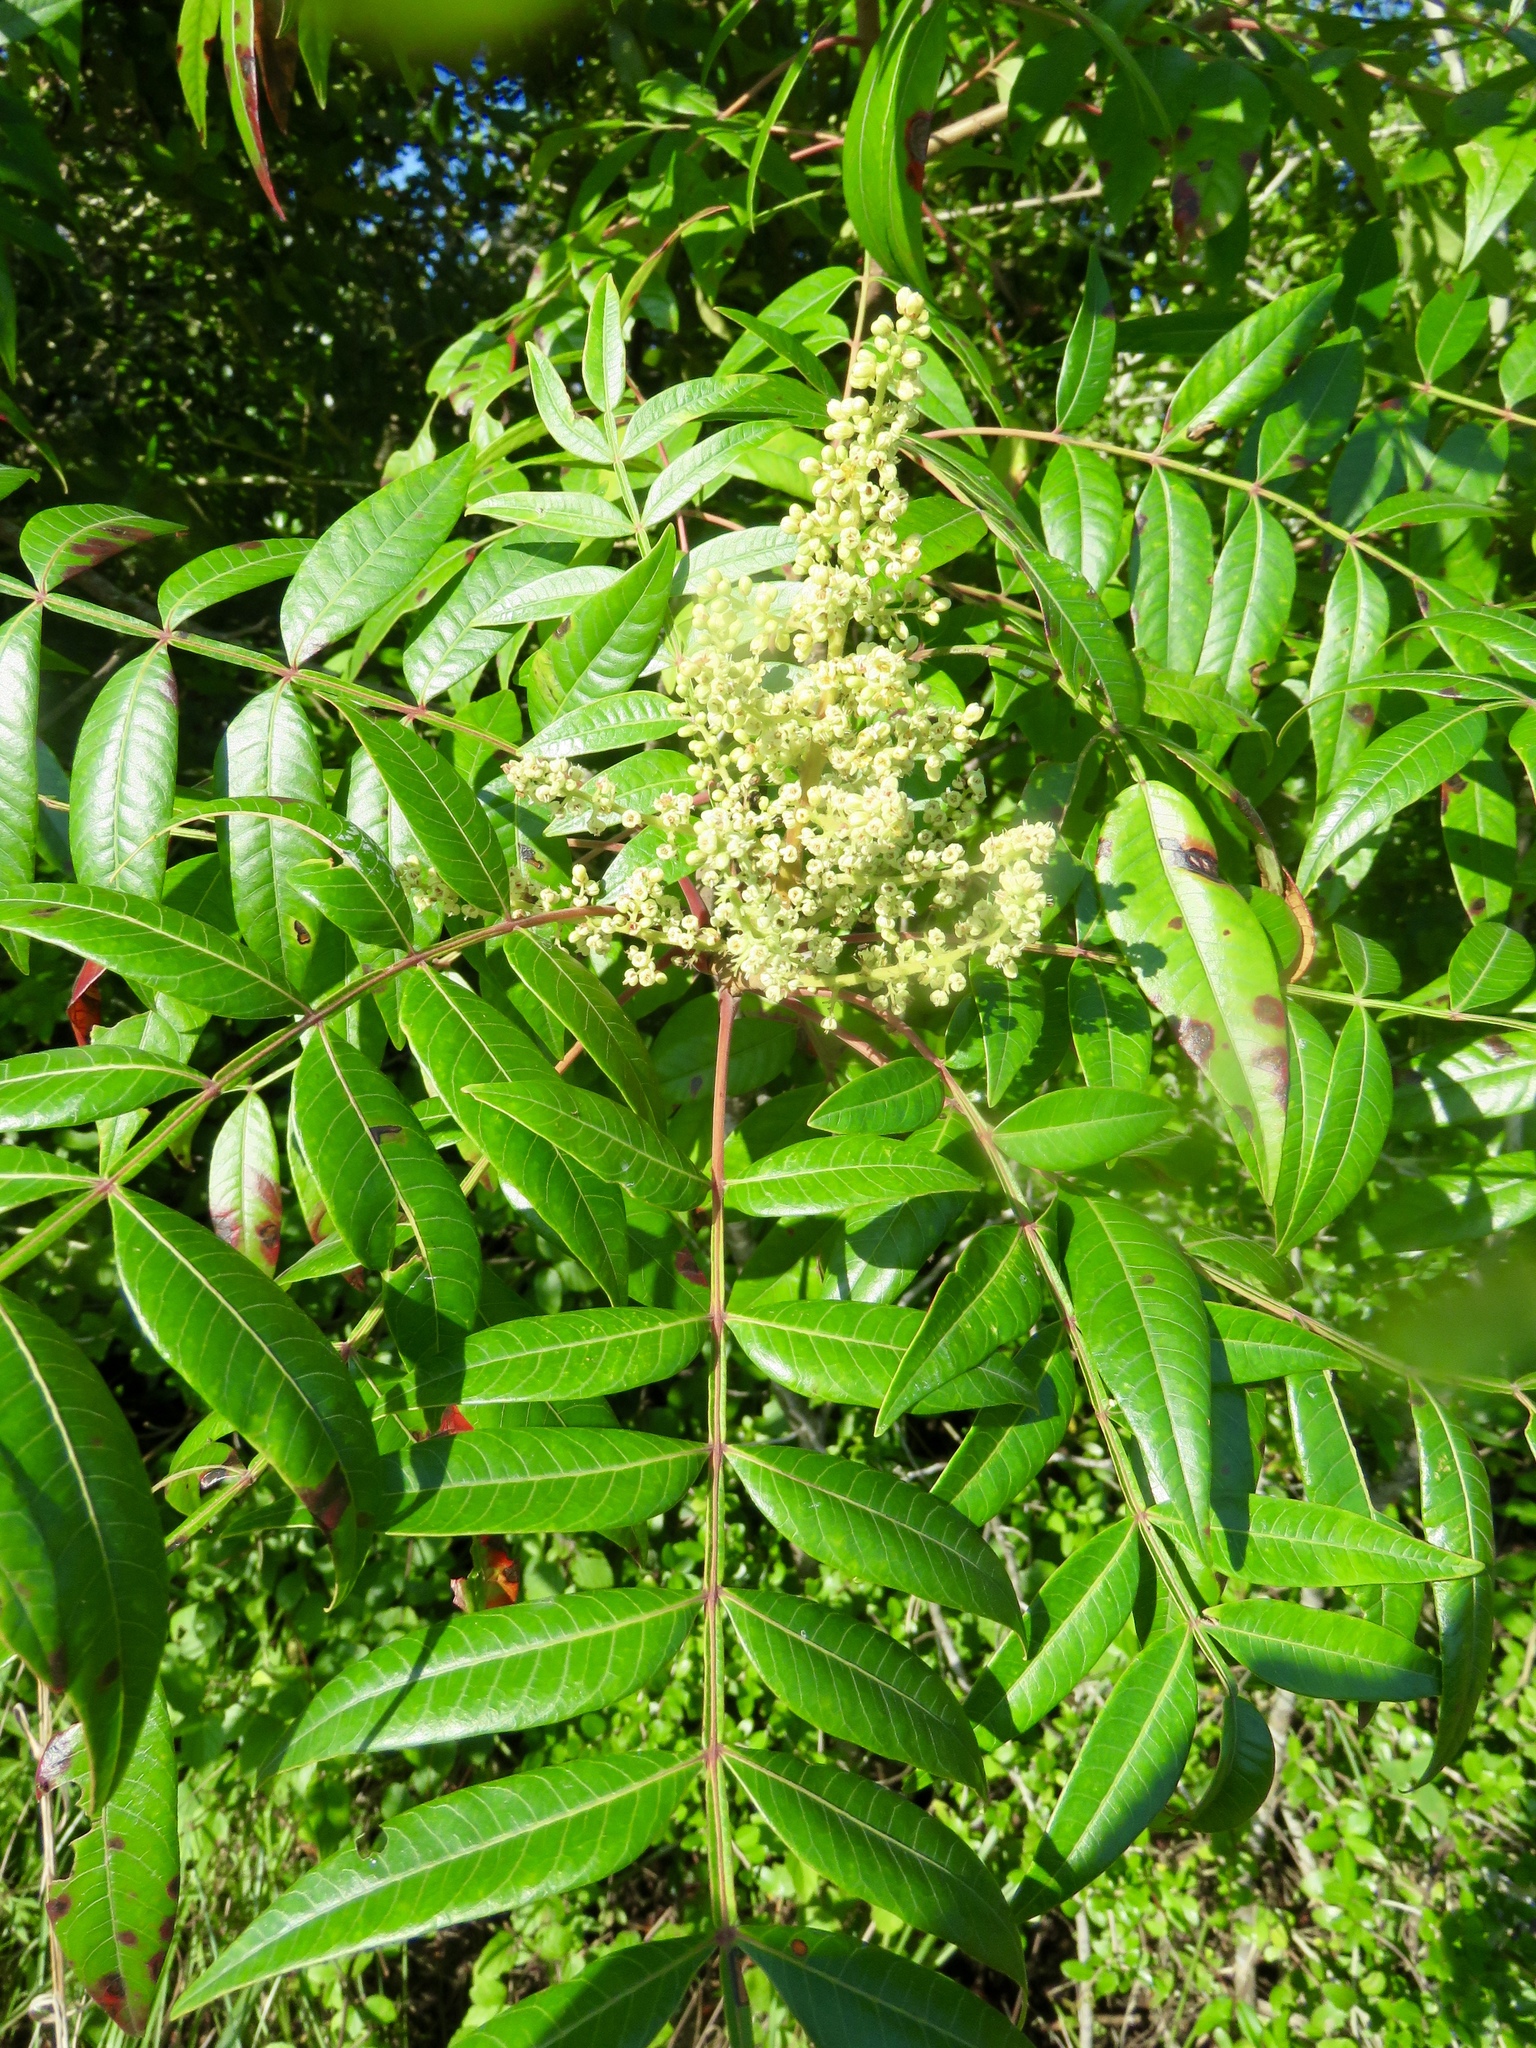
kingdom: Plantae
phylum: Tracheophyta
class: Magnoliopsida
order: Sapindales
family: Anacardiaceae
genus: Rhus
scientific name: Rhus copallina
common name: Shining sumac
